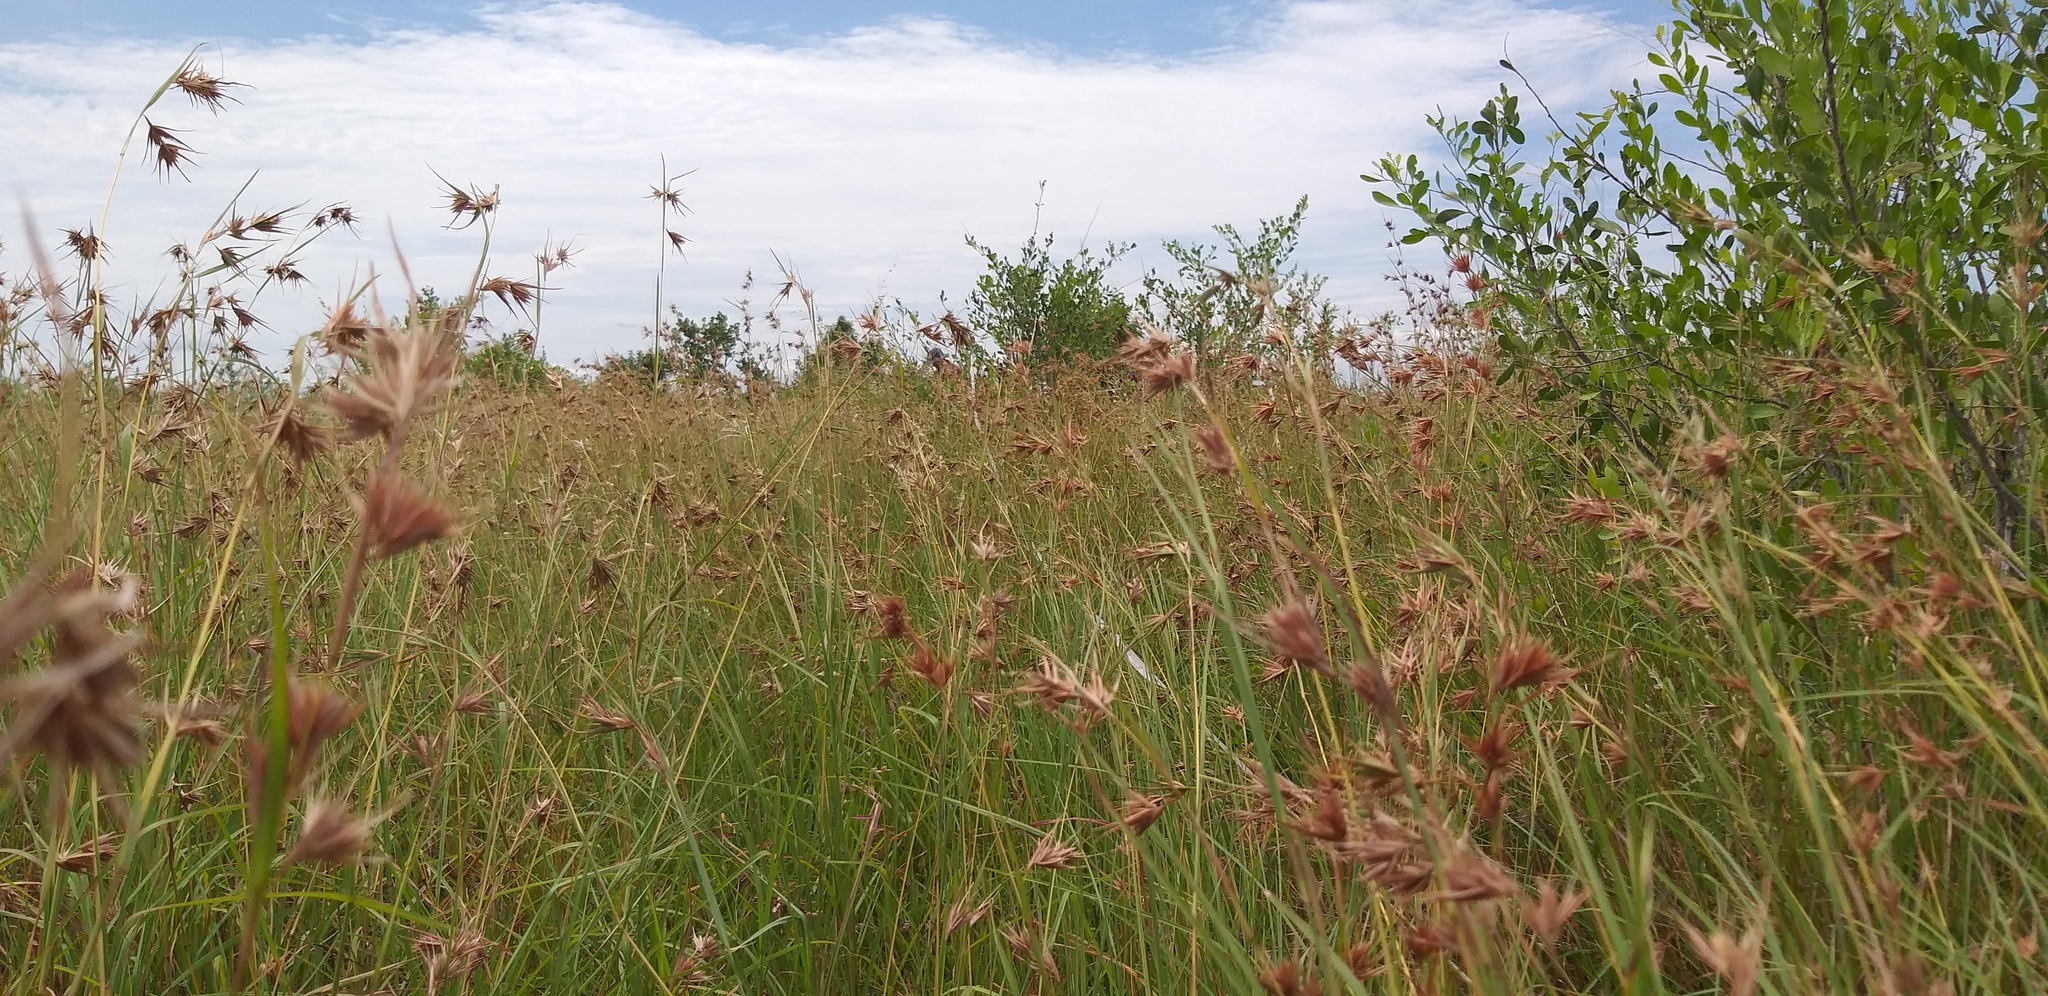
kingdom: Plantae
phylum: Tracheophyta
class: Liliopsida
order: Poales
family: Poaceae
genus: Themeda
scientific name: Themeda triandra
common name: Kangaroo grass
